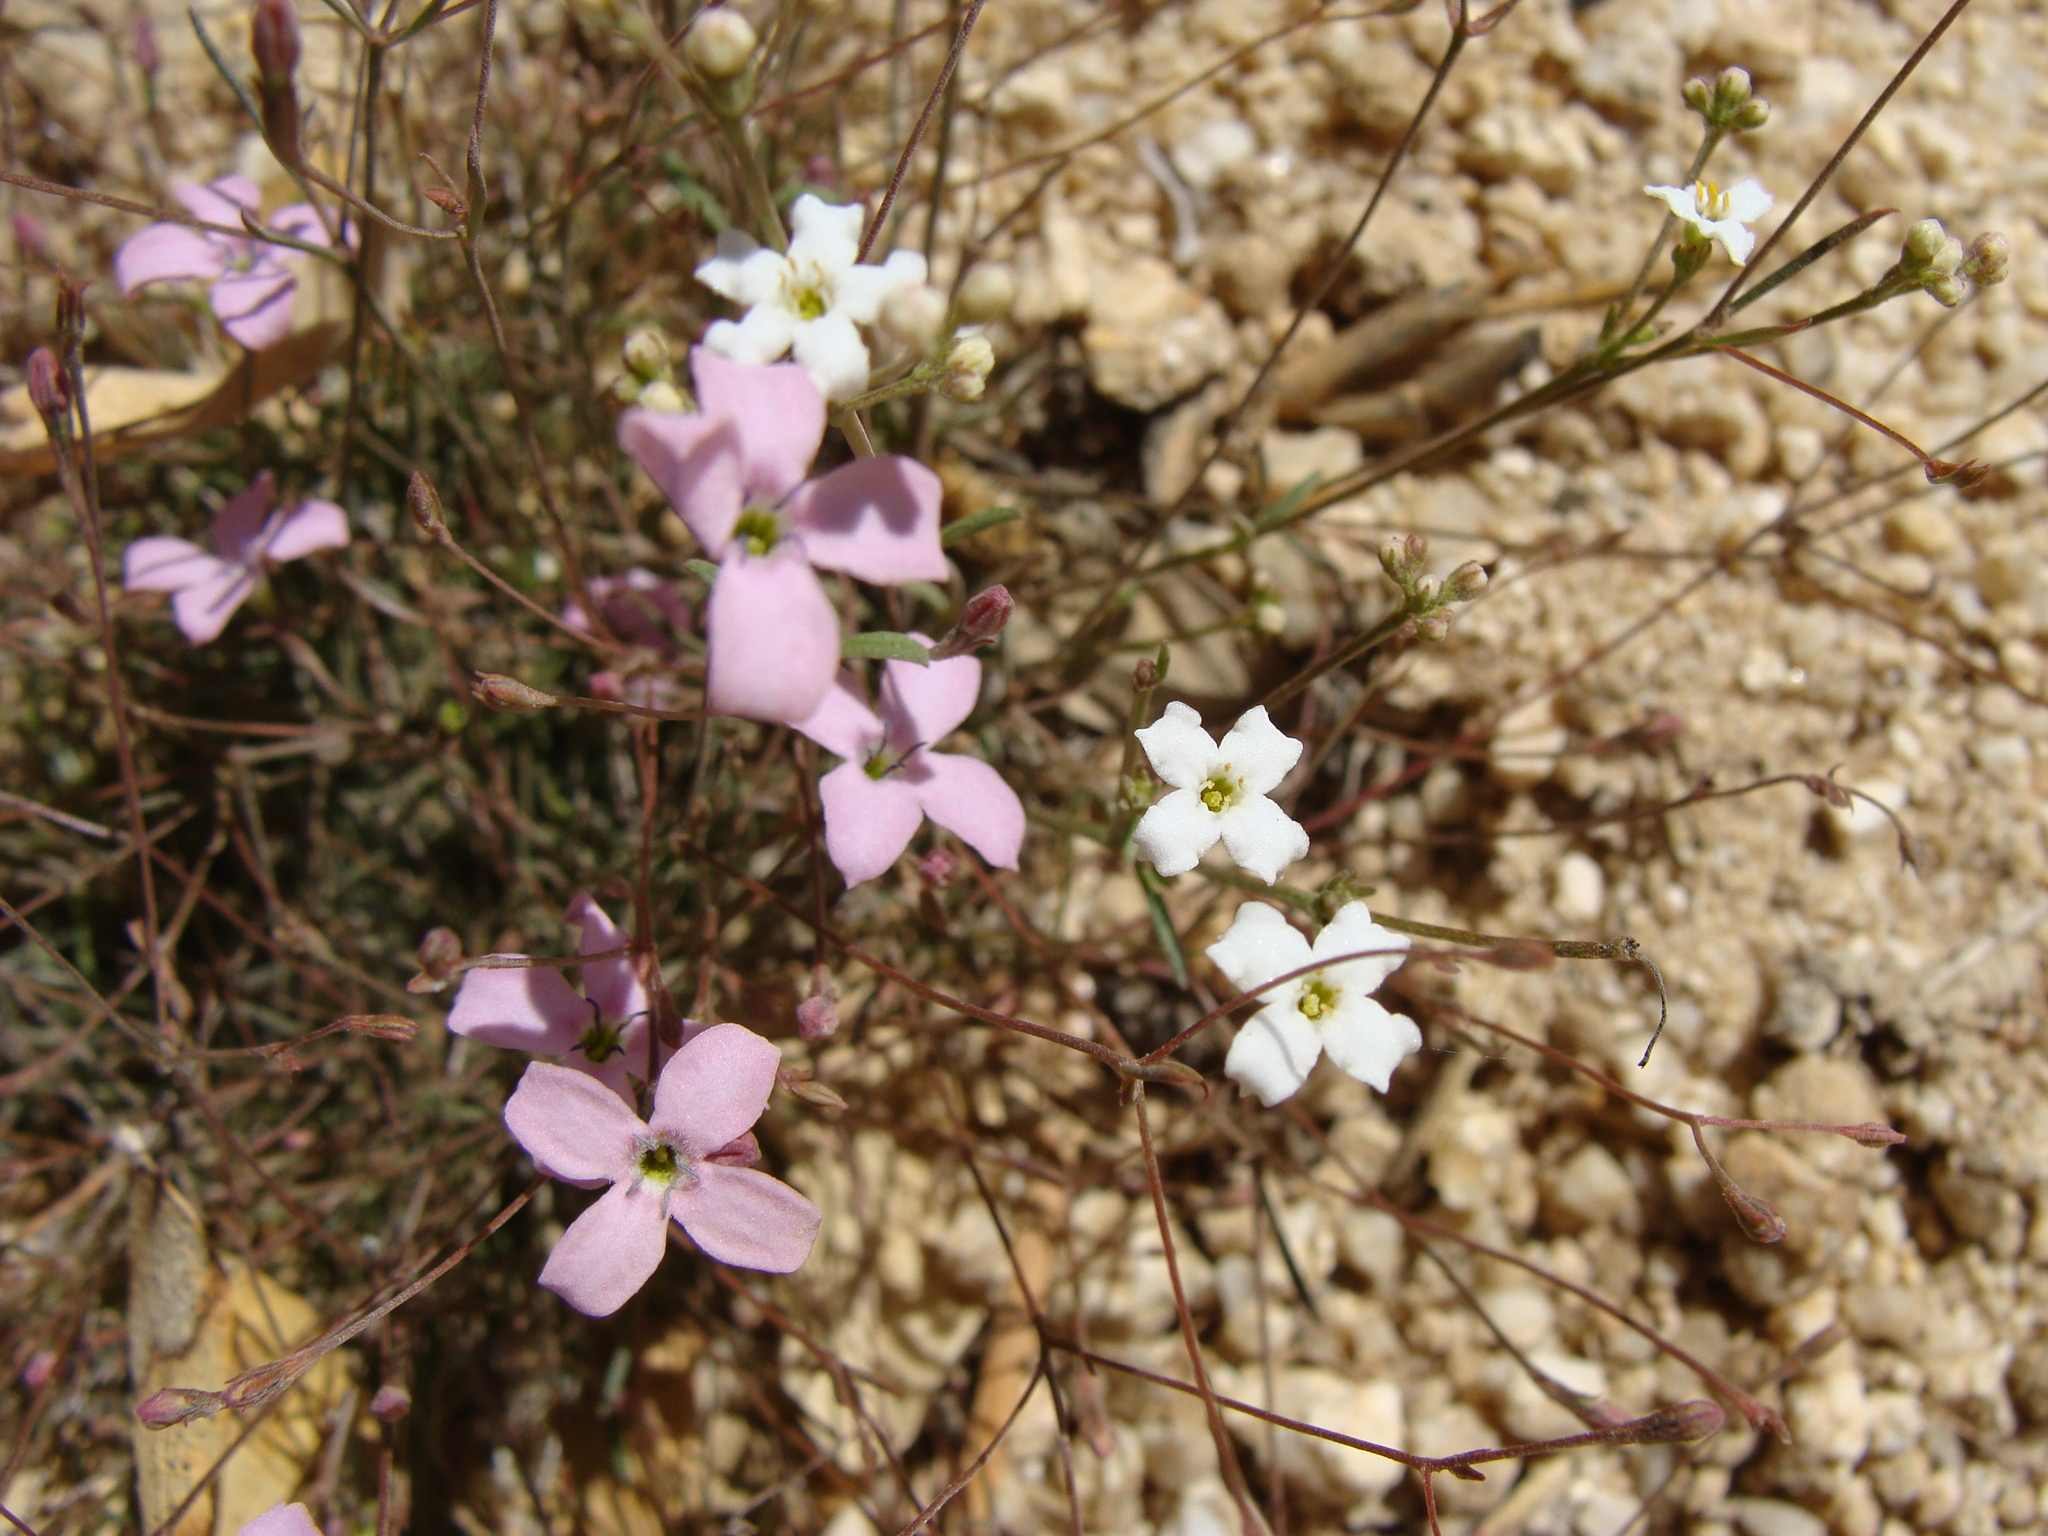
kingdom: Plantae
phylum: Tracheophyta
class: Magnoliopsida
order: Gentianales
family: Rubiaceae
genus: Stenotis
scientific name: Stenotis asperuloides
